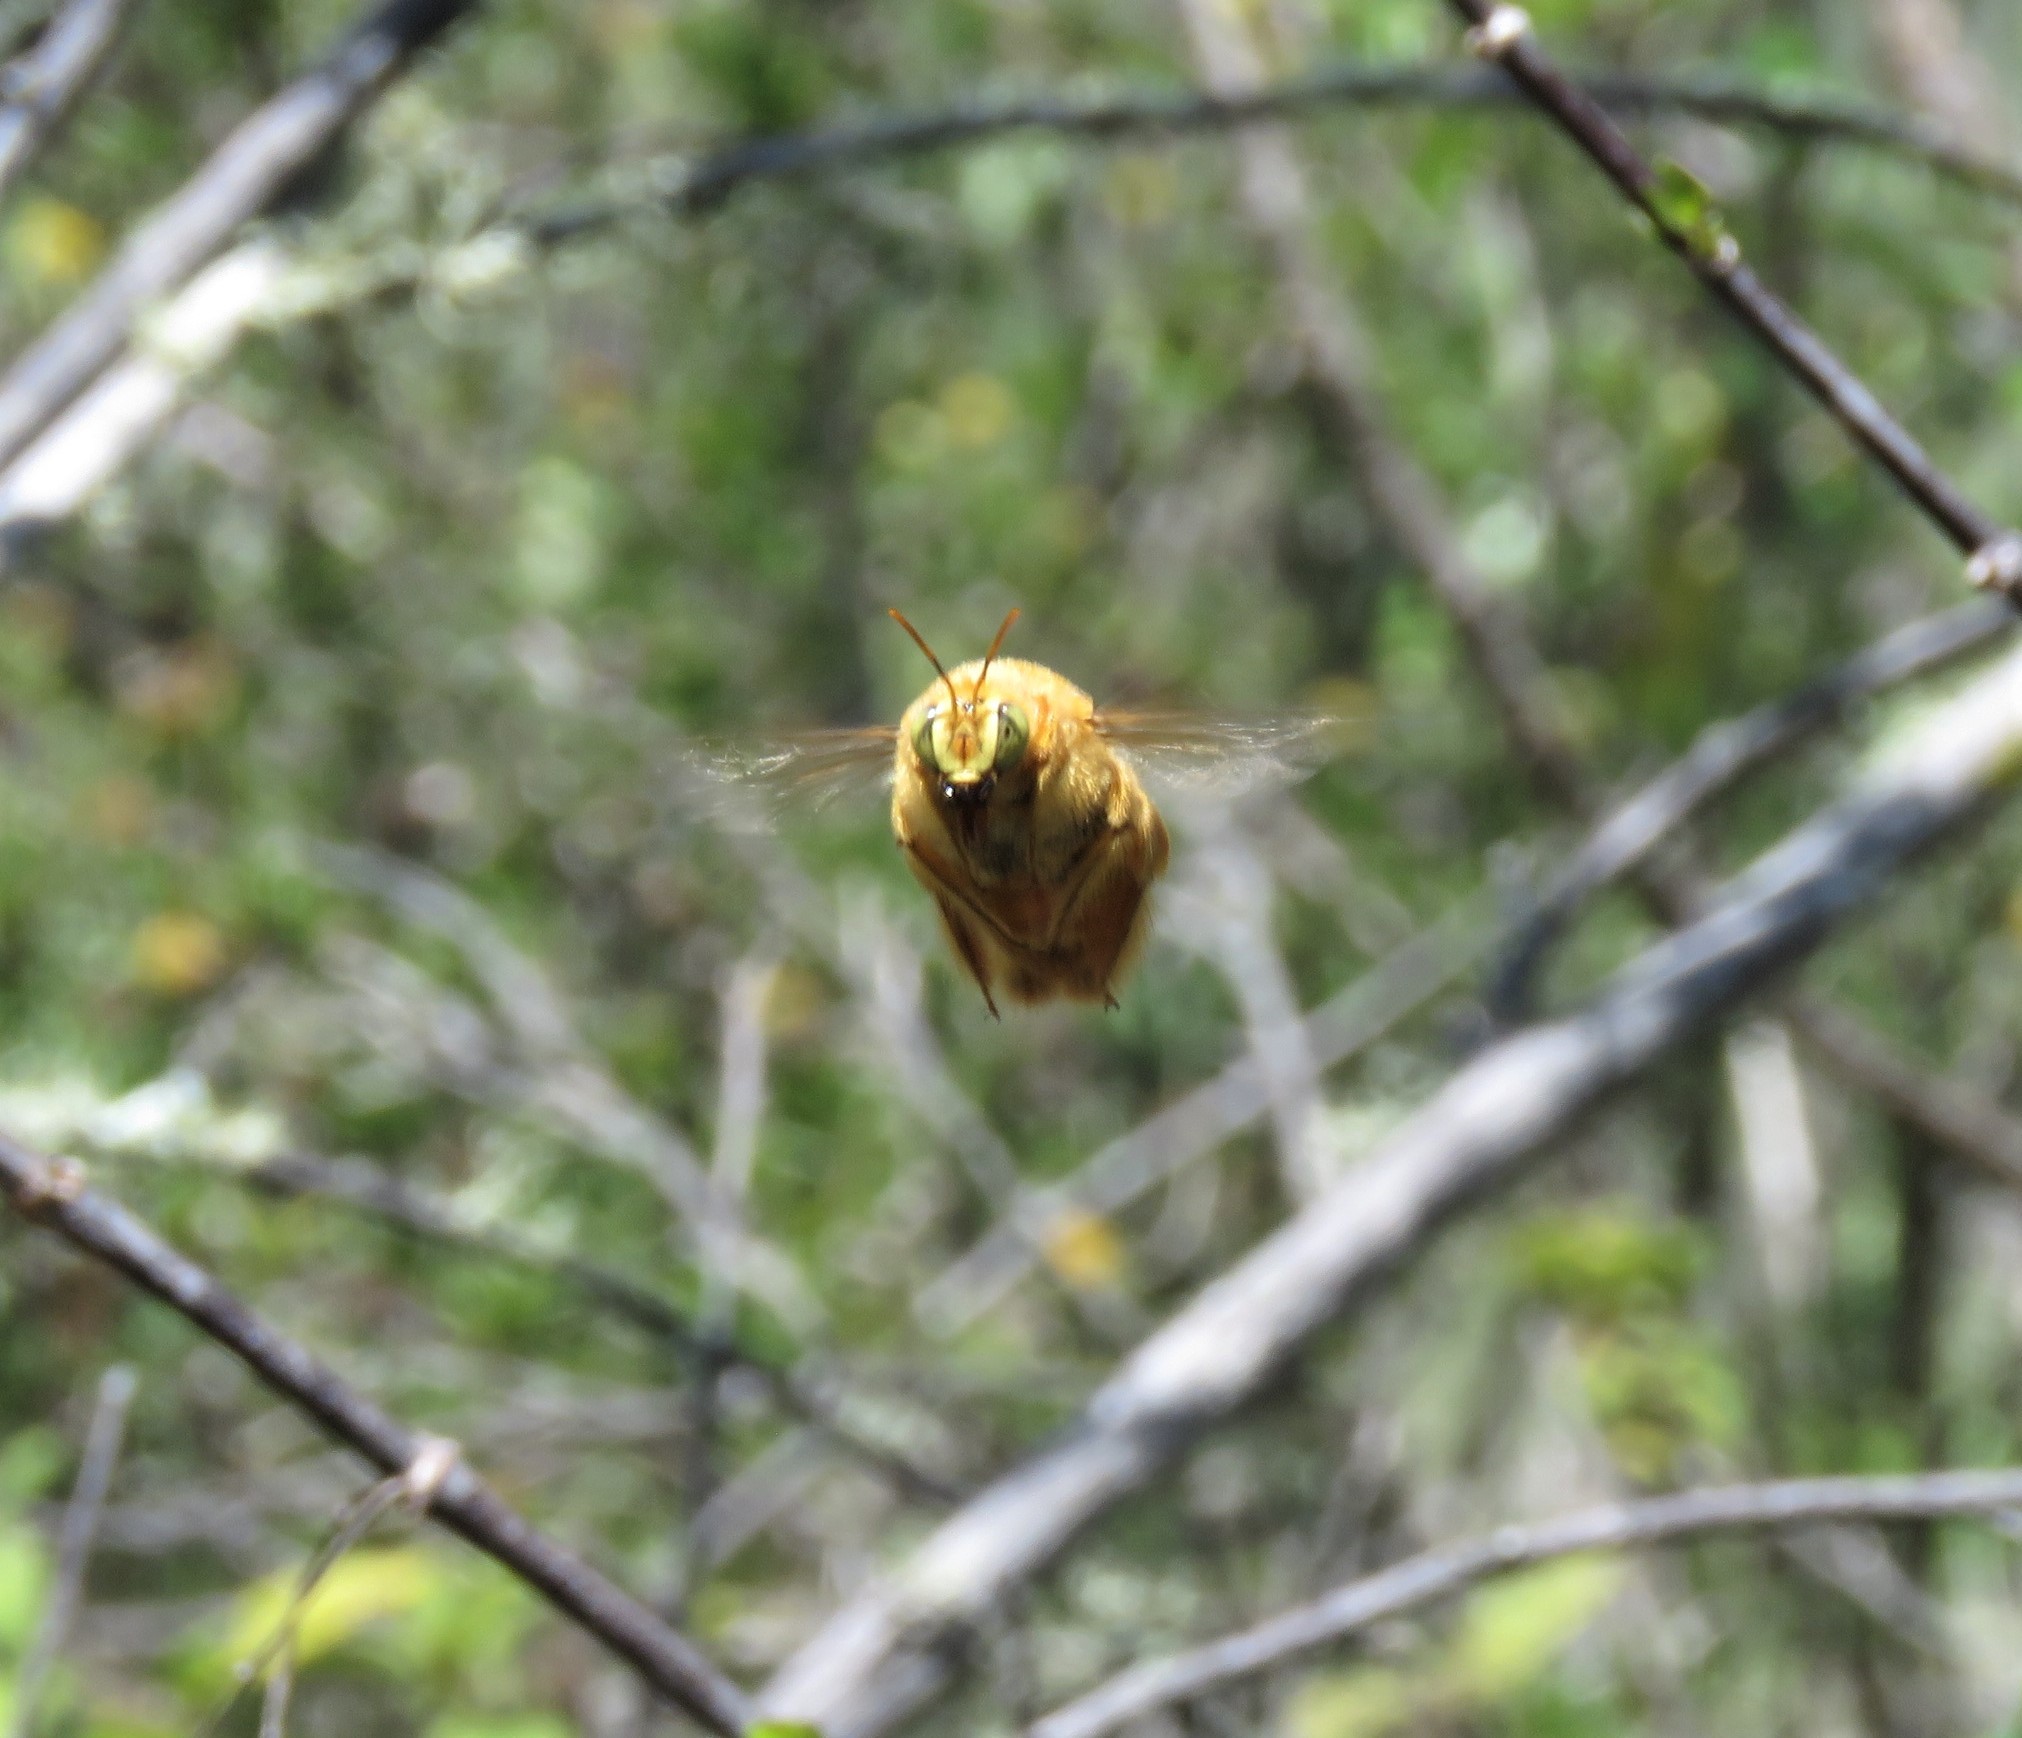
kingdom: Animalia
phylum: Arthropoda
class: Insecta
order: Hymenoptera
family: Apidae
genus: Xylocopa
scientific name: Xylocopa darwini
